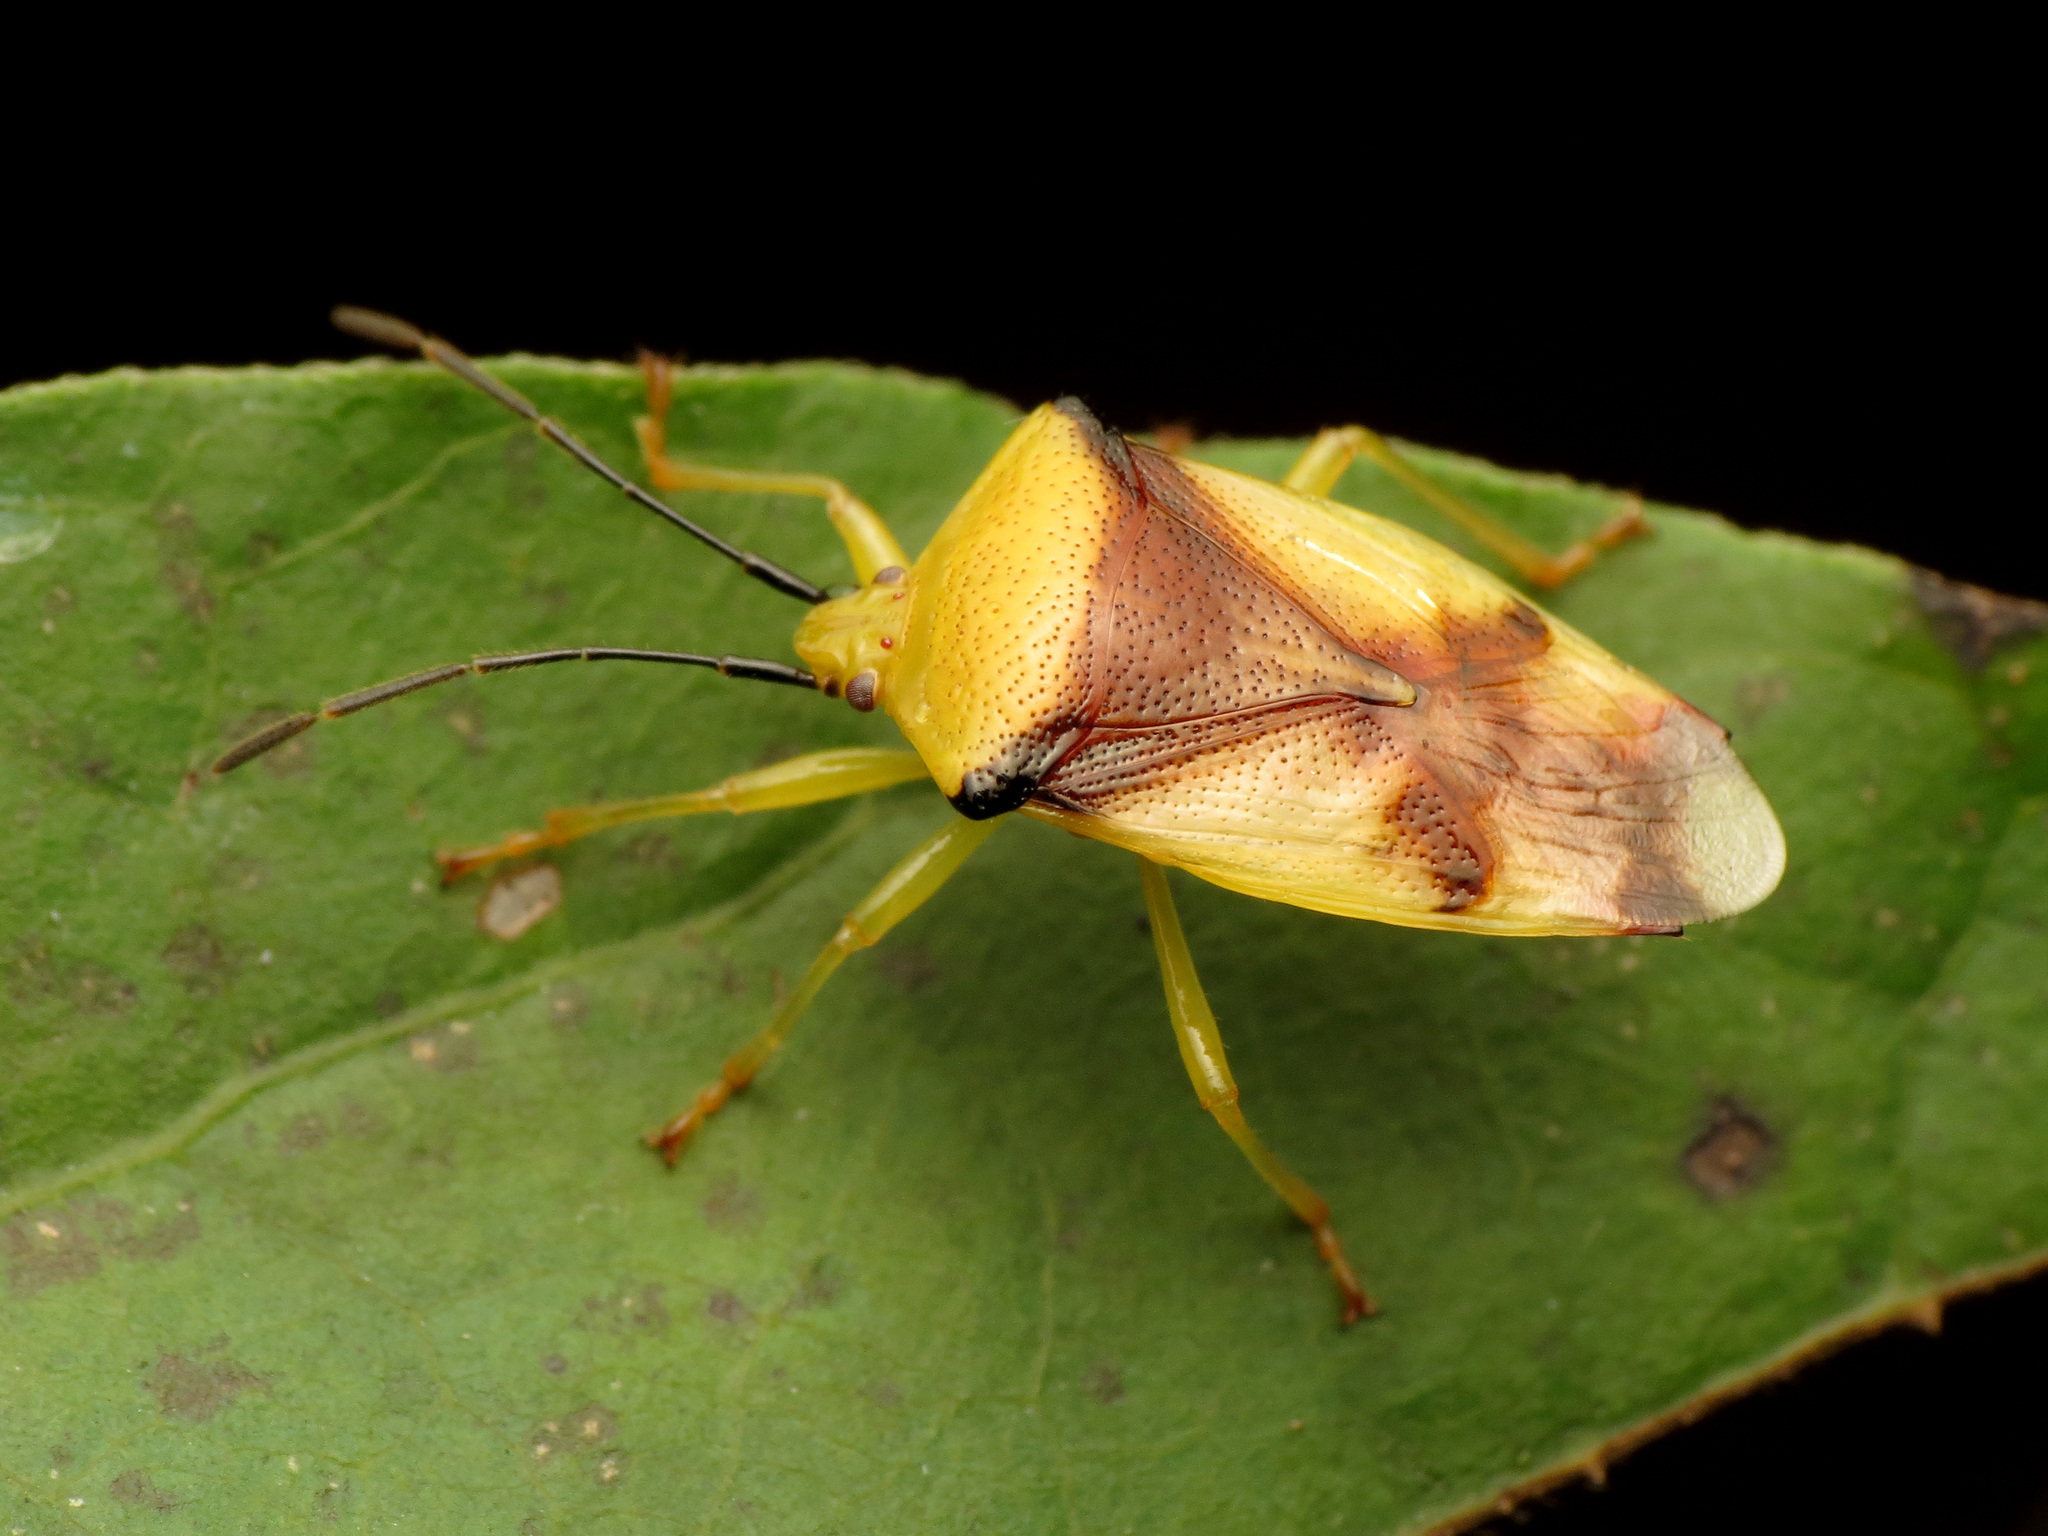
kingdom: Animalia
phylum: Arthropoda
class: Insecta
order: Hemiptera
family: Acanthosomatidae
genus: Elasmostethus
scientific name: Elasmostethus atricornis
